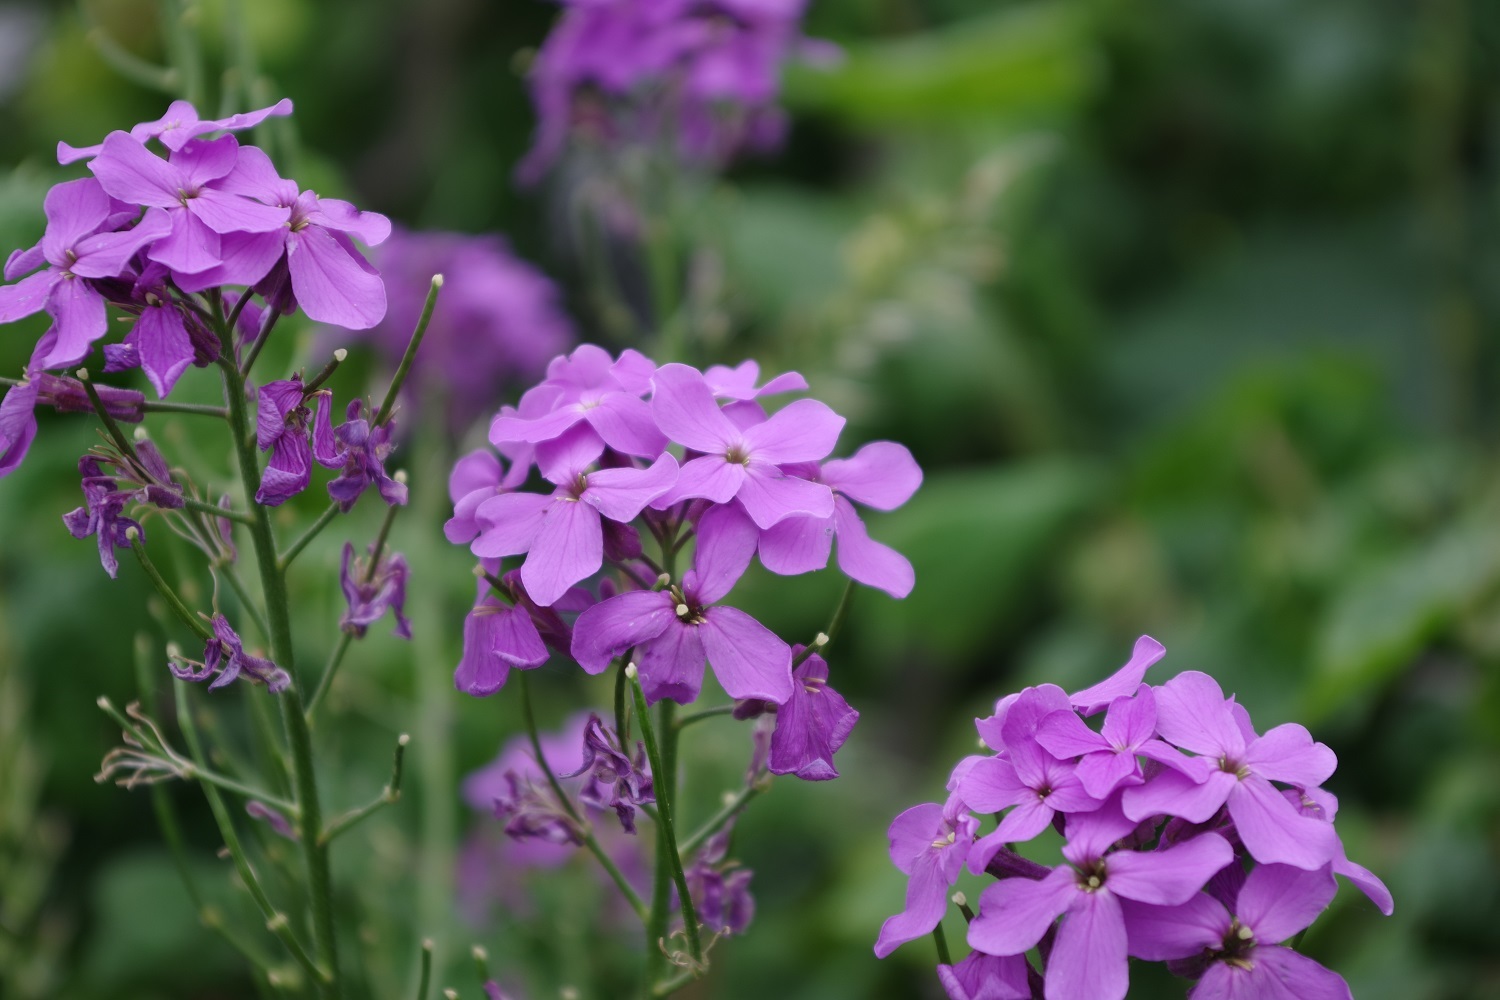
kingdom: Plantae
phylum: Tracheophyta
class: Magnoliopsida
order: Brassicales
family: Brassicaceae
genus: Hesperis
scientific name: Hesperis matronalis
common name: Dame's-violet
